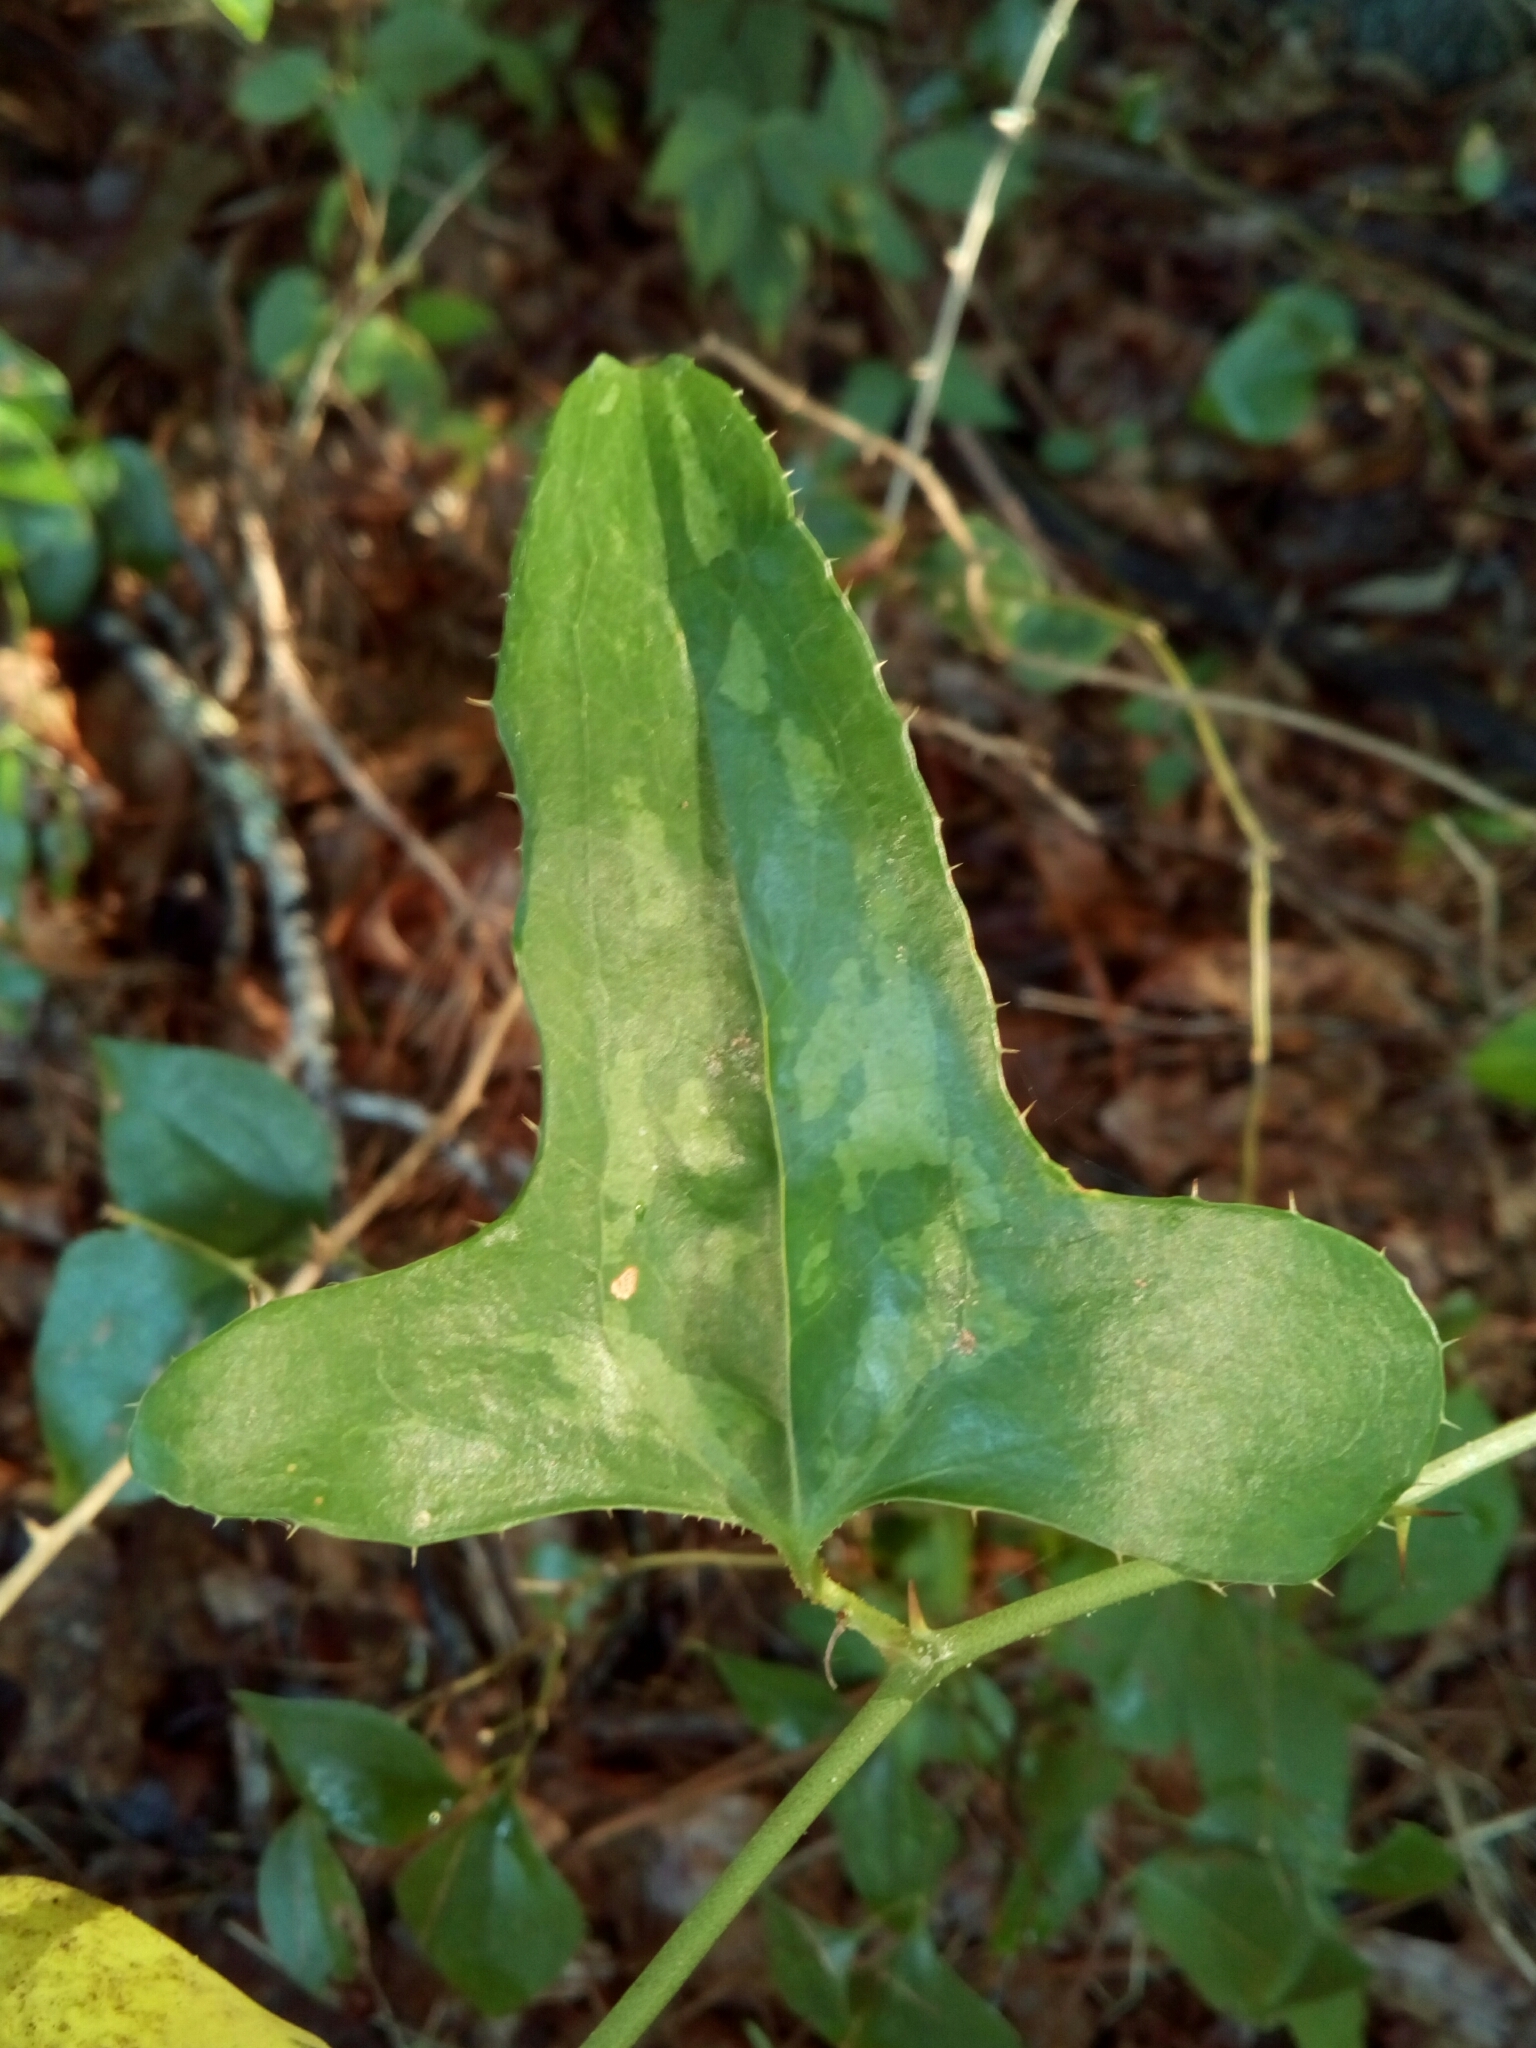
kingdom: Plantae
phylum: Tracheophyta
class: Liliopsida
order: Liliales
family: Smilacaceae
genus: Smilax
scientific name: Smilax bona-nox
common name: Catbrier
